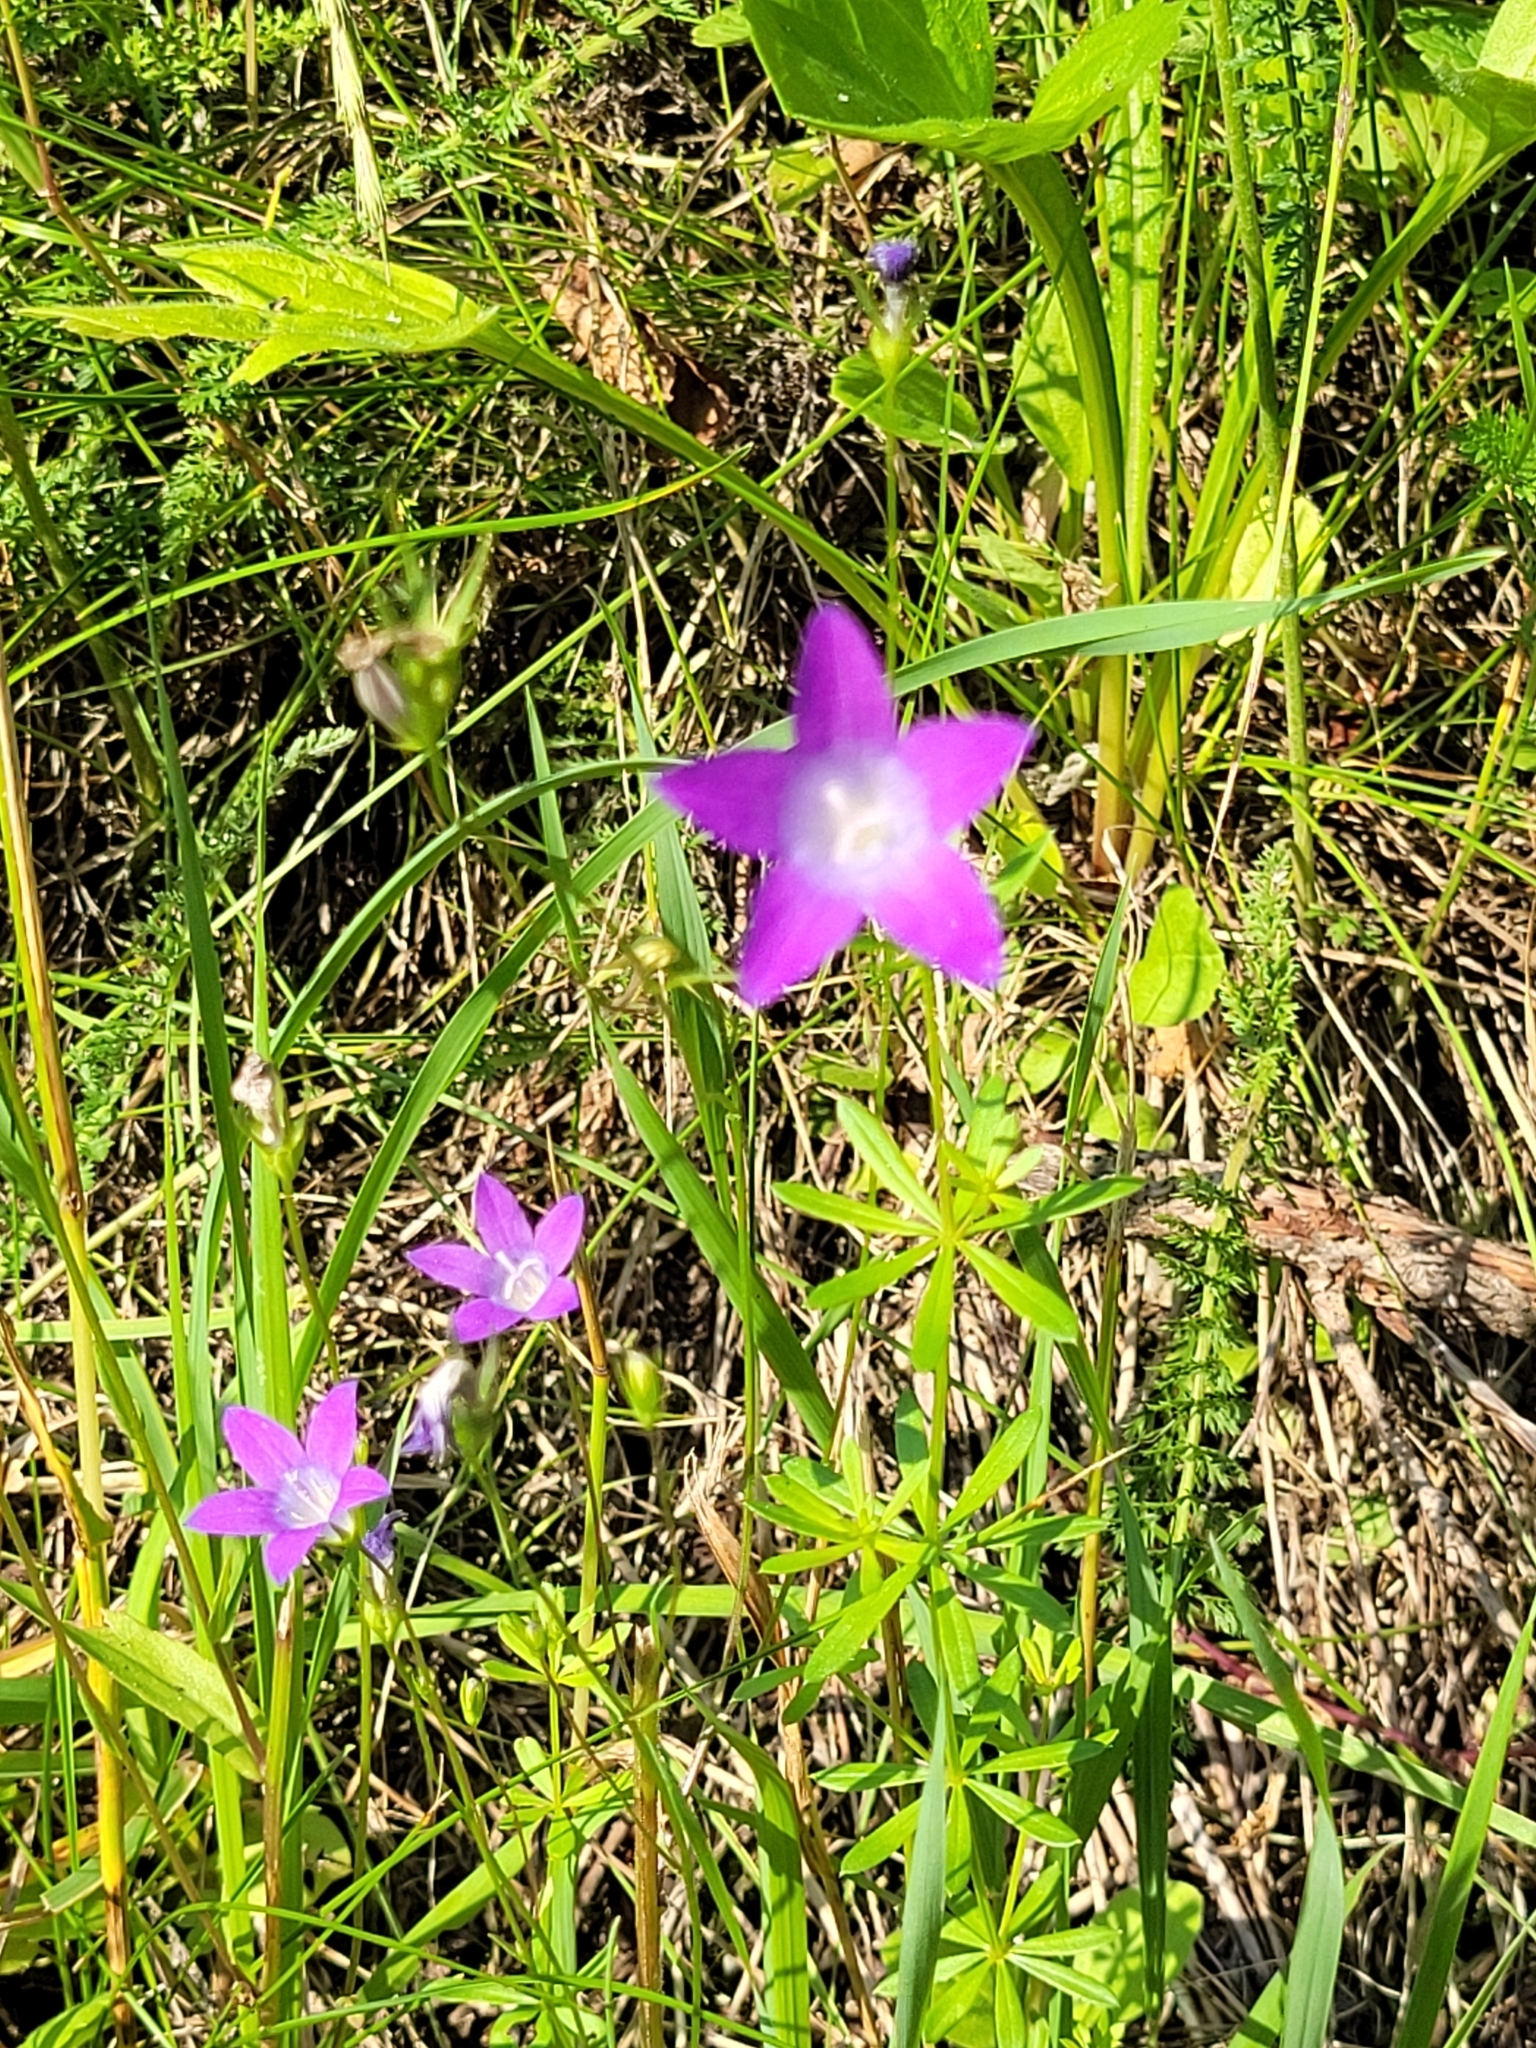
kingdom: Plantae
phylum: Tracheophyta
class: Magnoliopsida
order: Asterales
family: Campanulaceae
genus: Campanula
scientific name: Campanula patula
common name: Spreading bellflower
